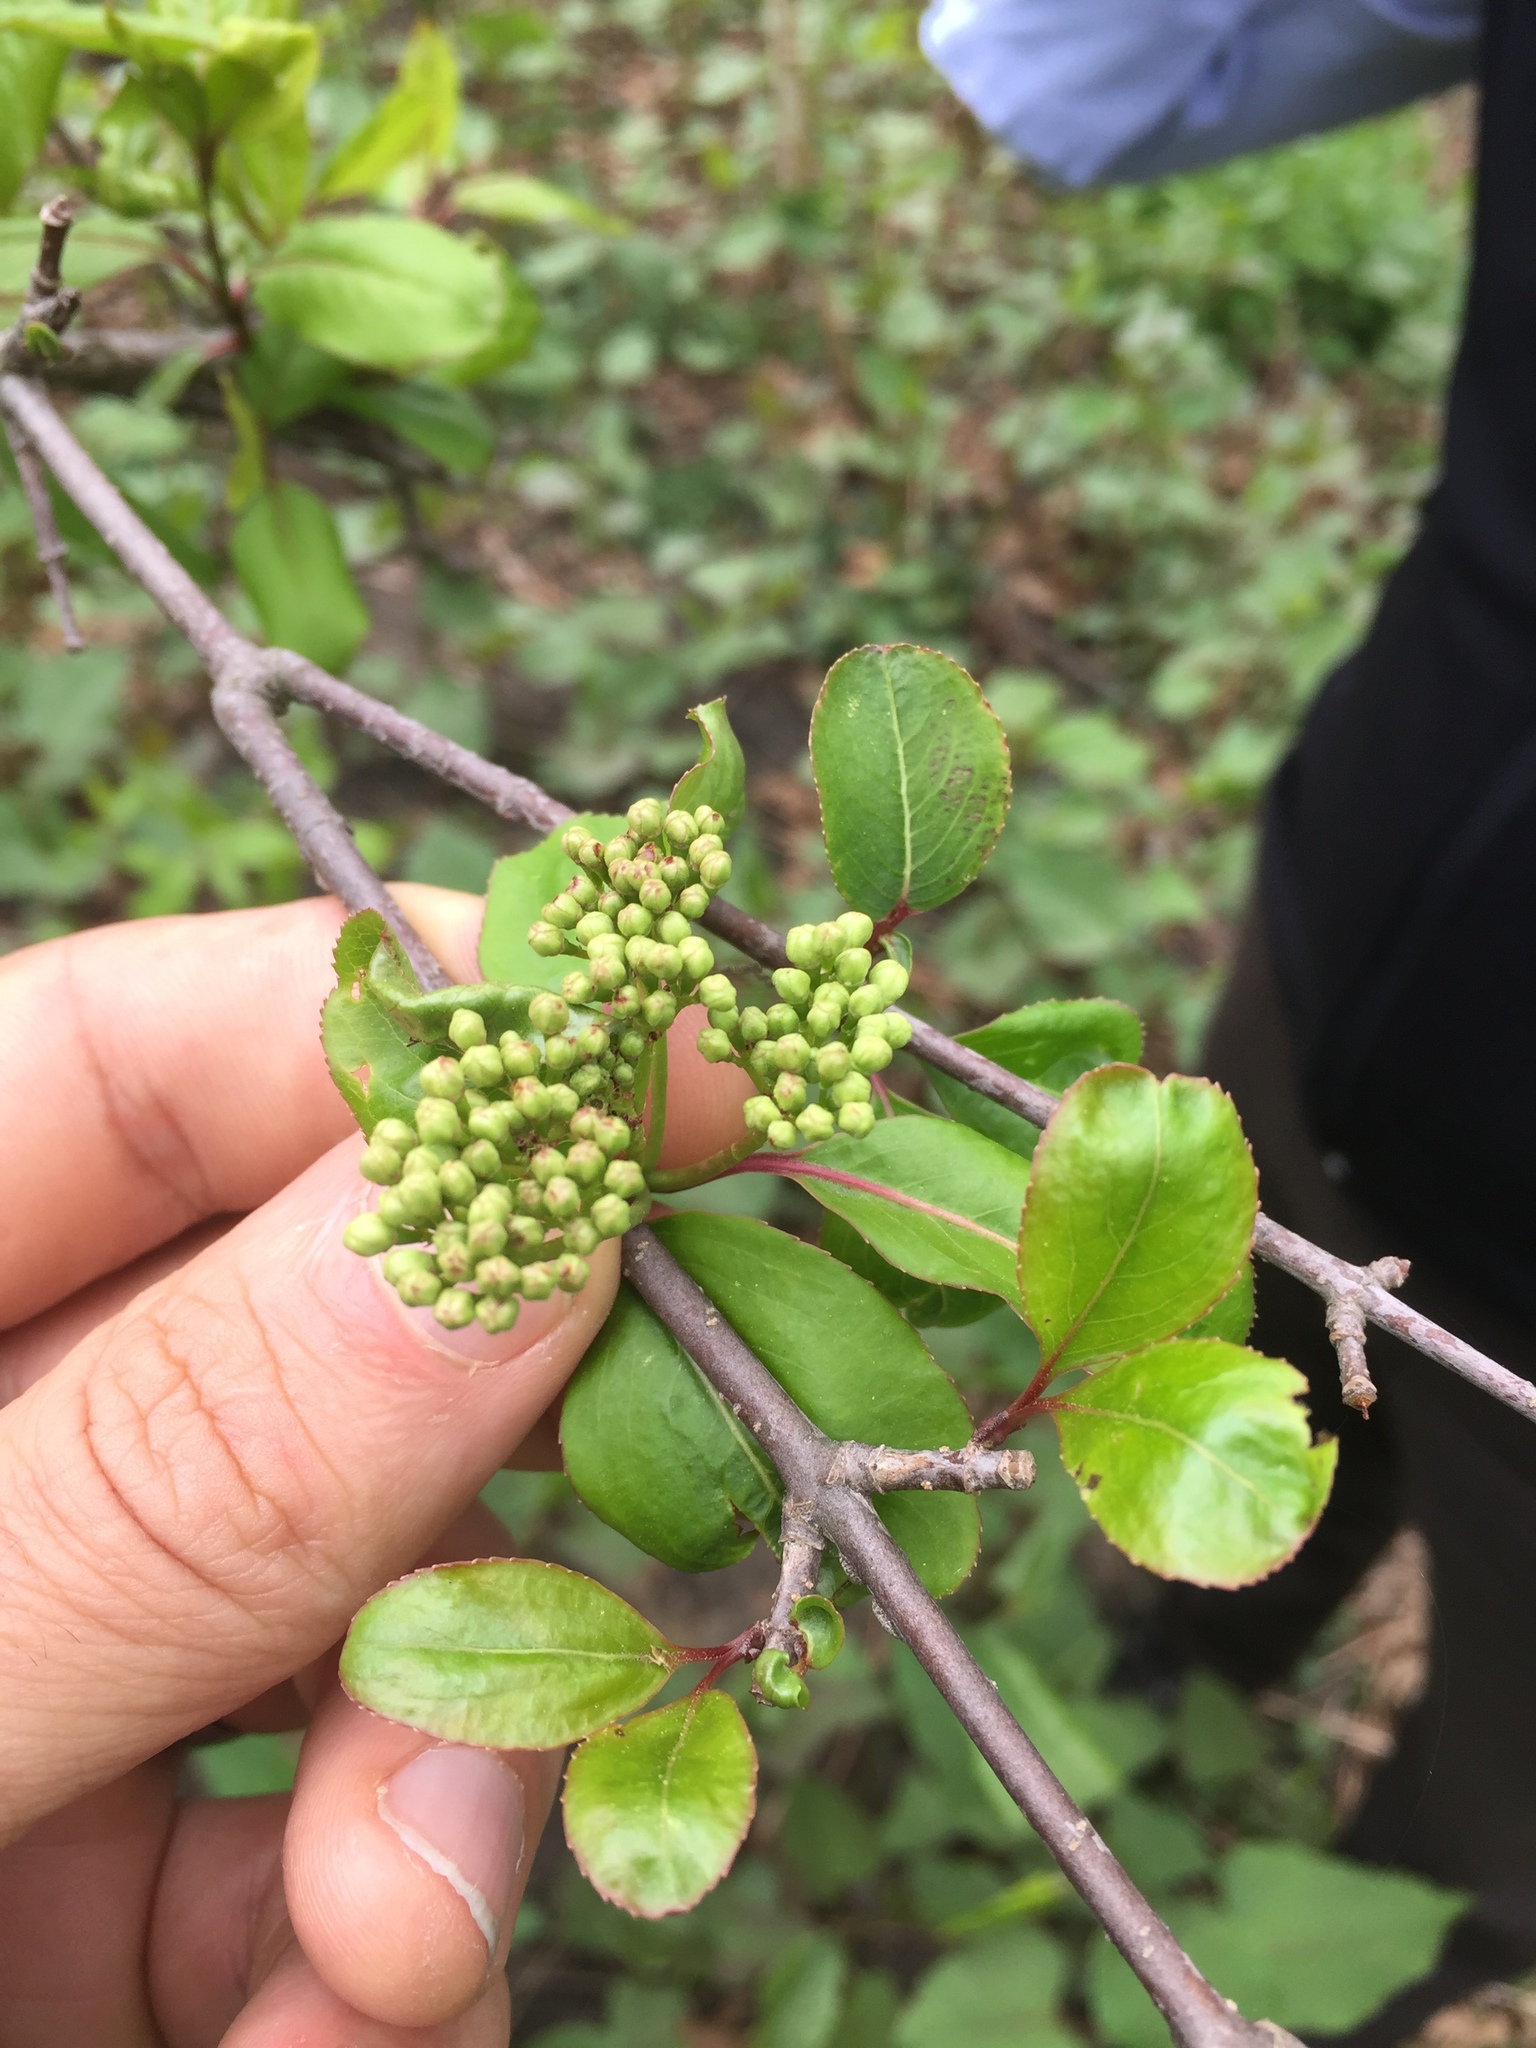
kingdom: Plantae
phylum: Tracheophyta
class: Magnoliopsida
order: Dipsacales
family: Viburnaceae
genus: Viburnum
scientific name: Viburnum prunifolium
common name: Black haw
